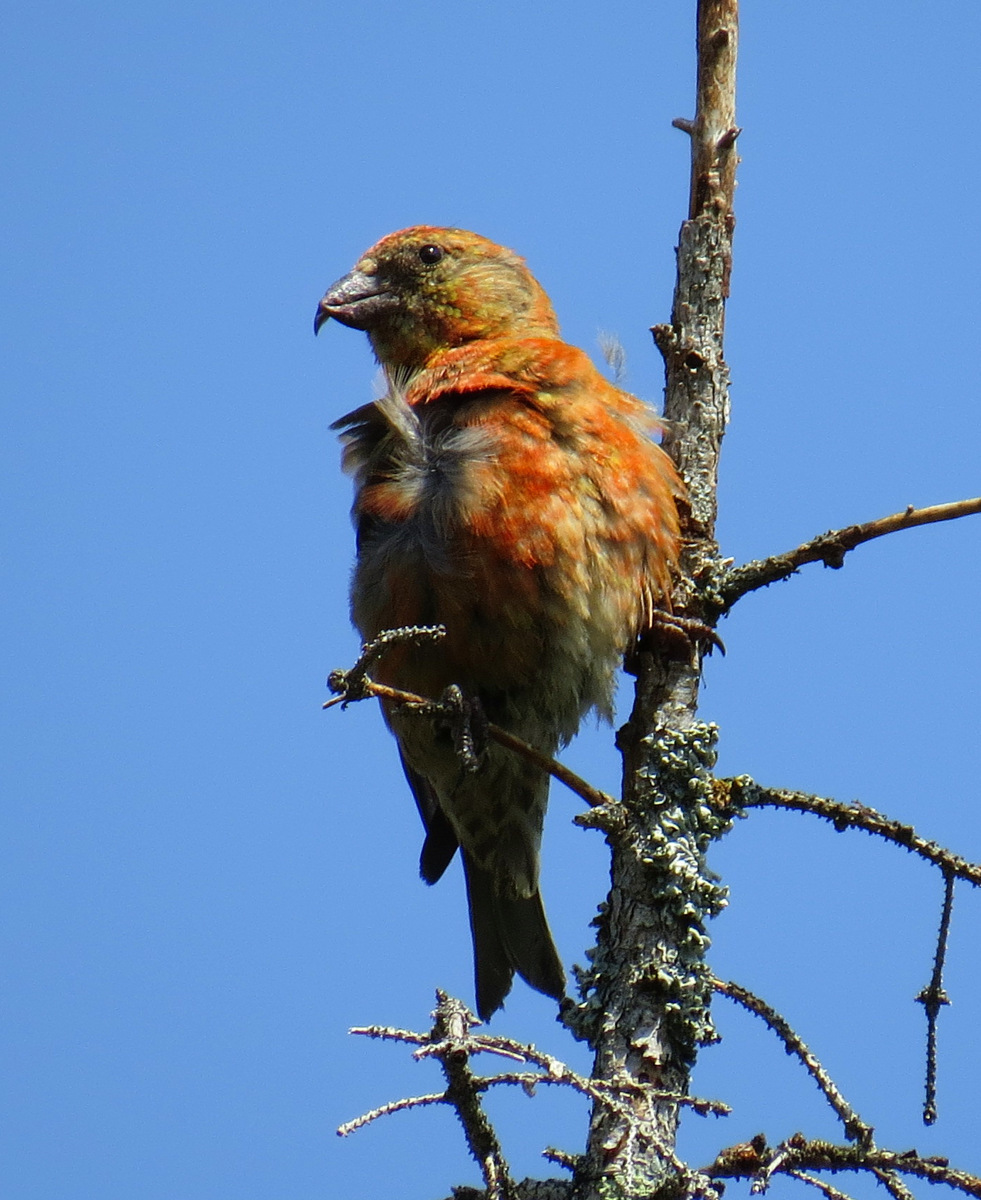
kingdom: Animalia
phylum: Chordata
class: Aves
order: Passeriformes
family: Fringillidae
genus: Loxia
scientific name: Loxia curvirostra
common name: Red crossbill
